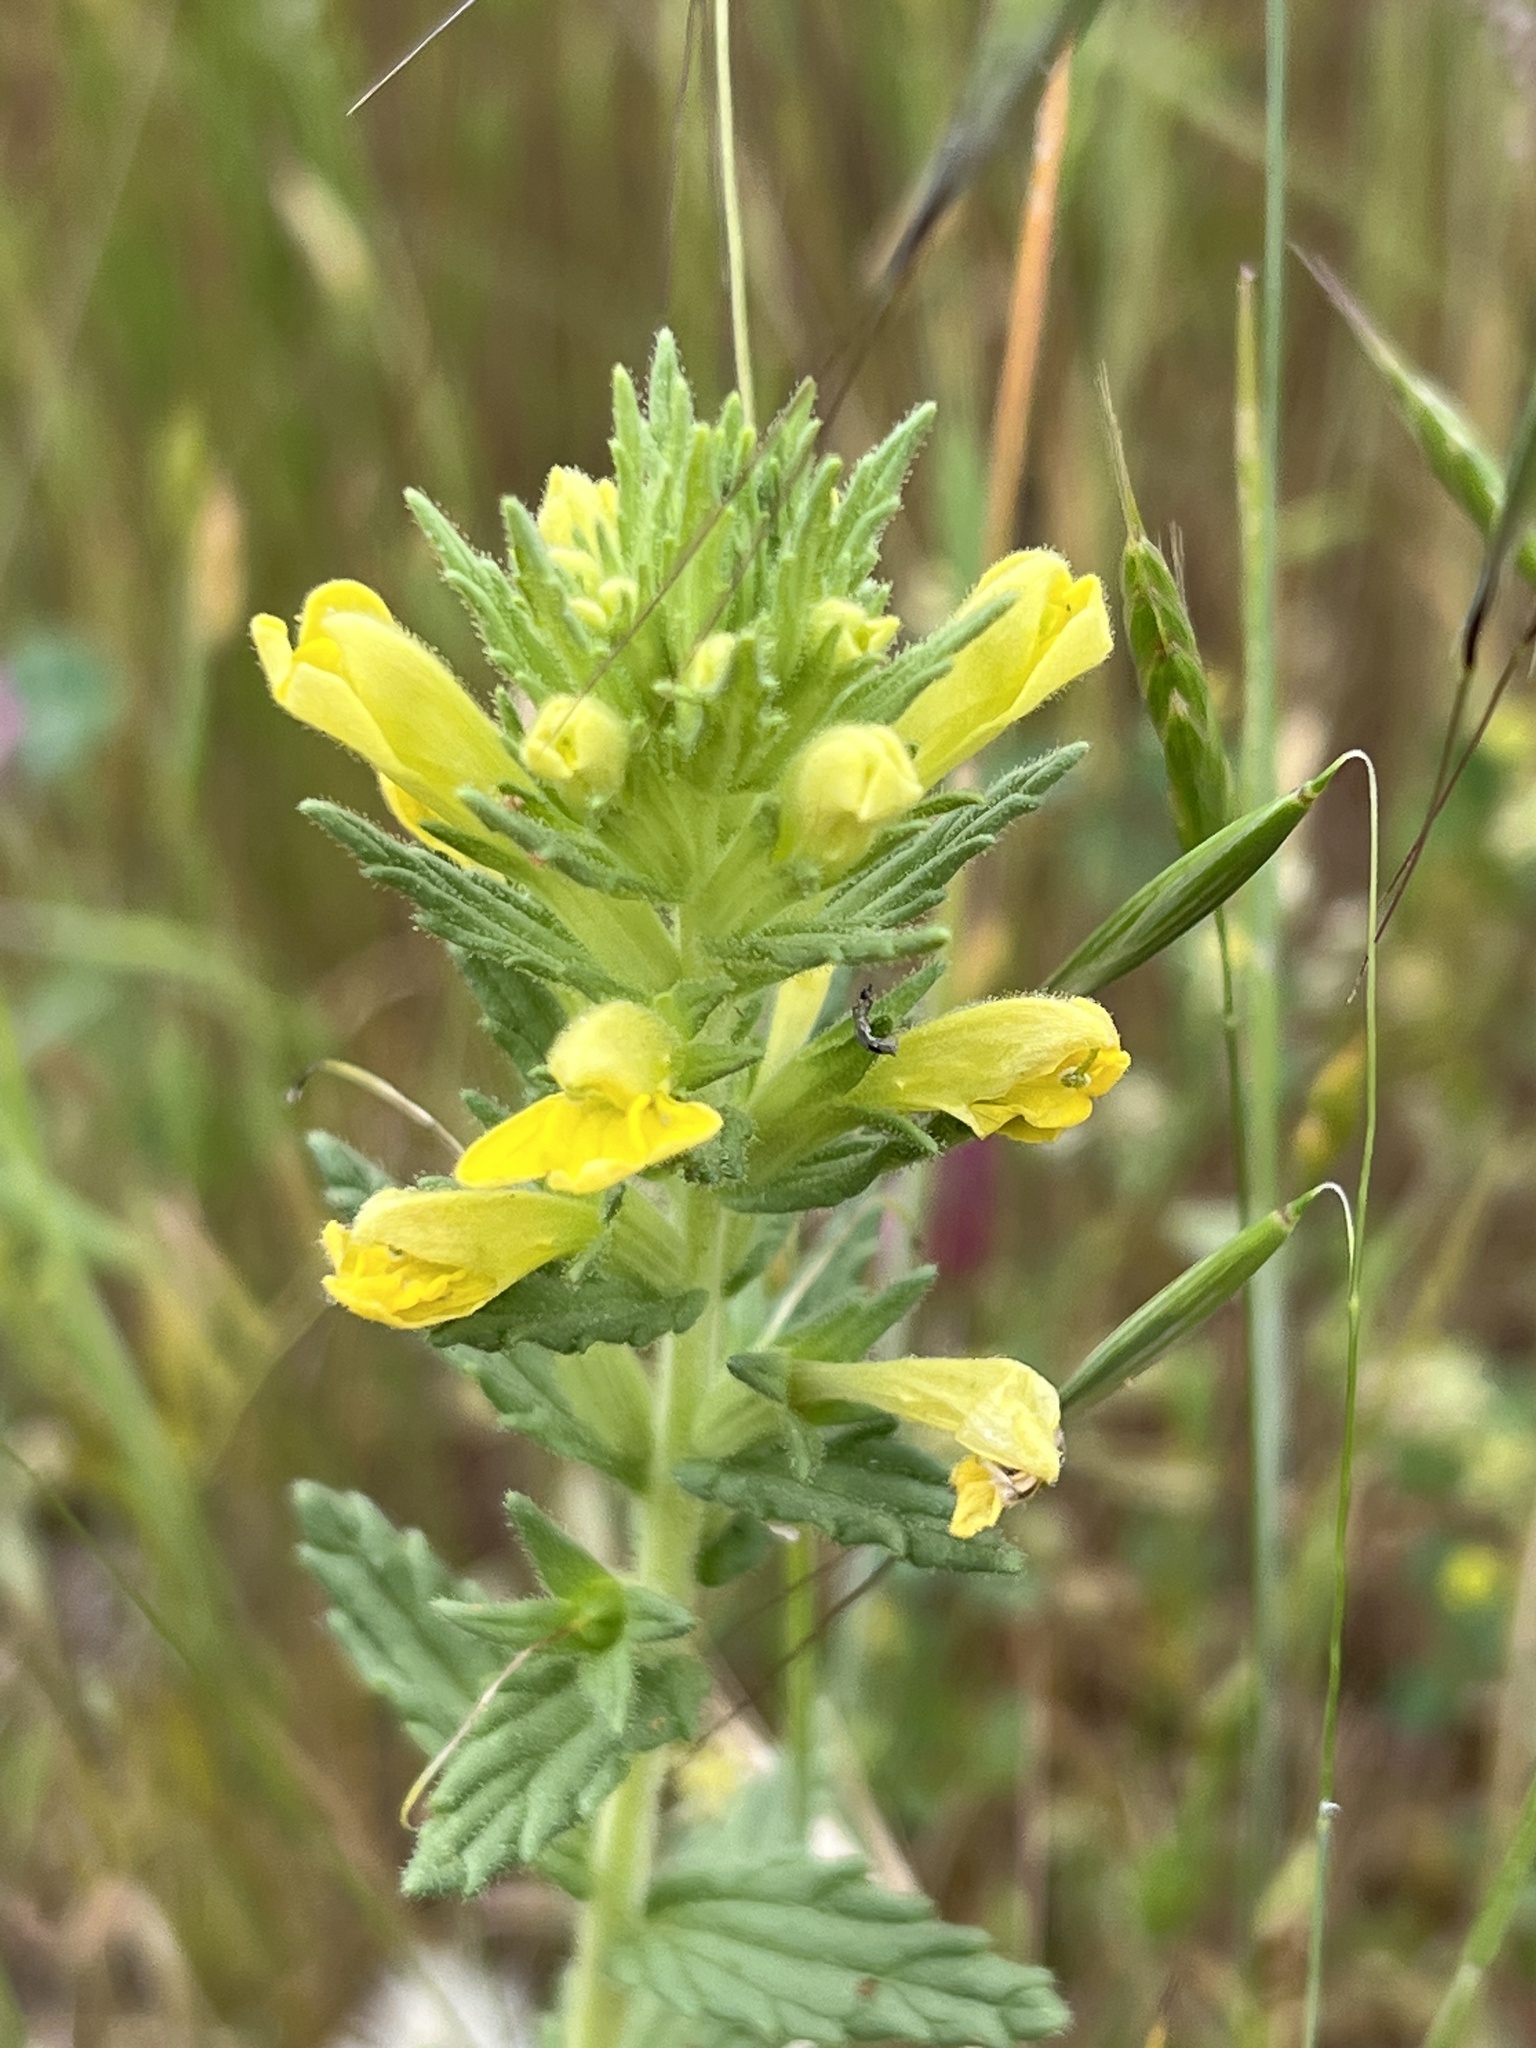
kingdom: Plantae
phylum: Tracheophyta
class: Magnoliopsida
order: Lamiales
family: Orobanchaceae
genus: Bellardia
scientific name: Bellardia viscosa
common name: Sticky parentucellia
